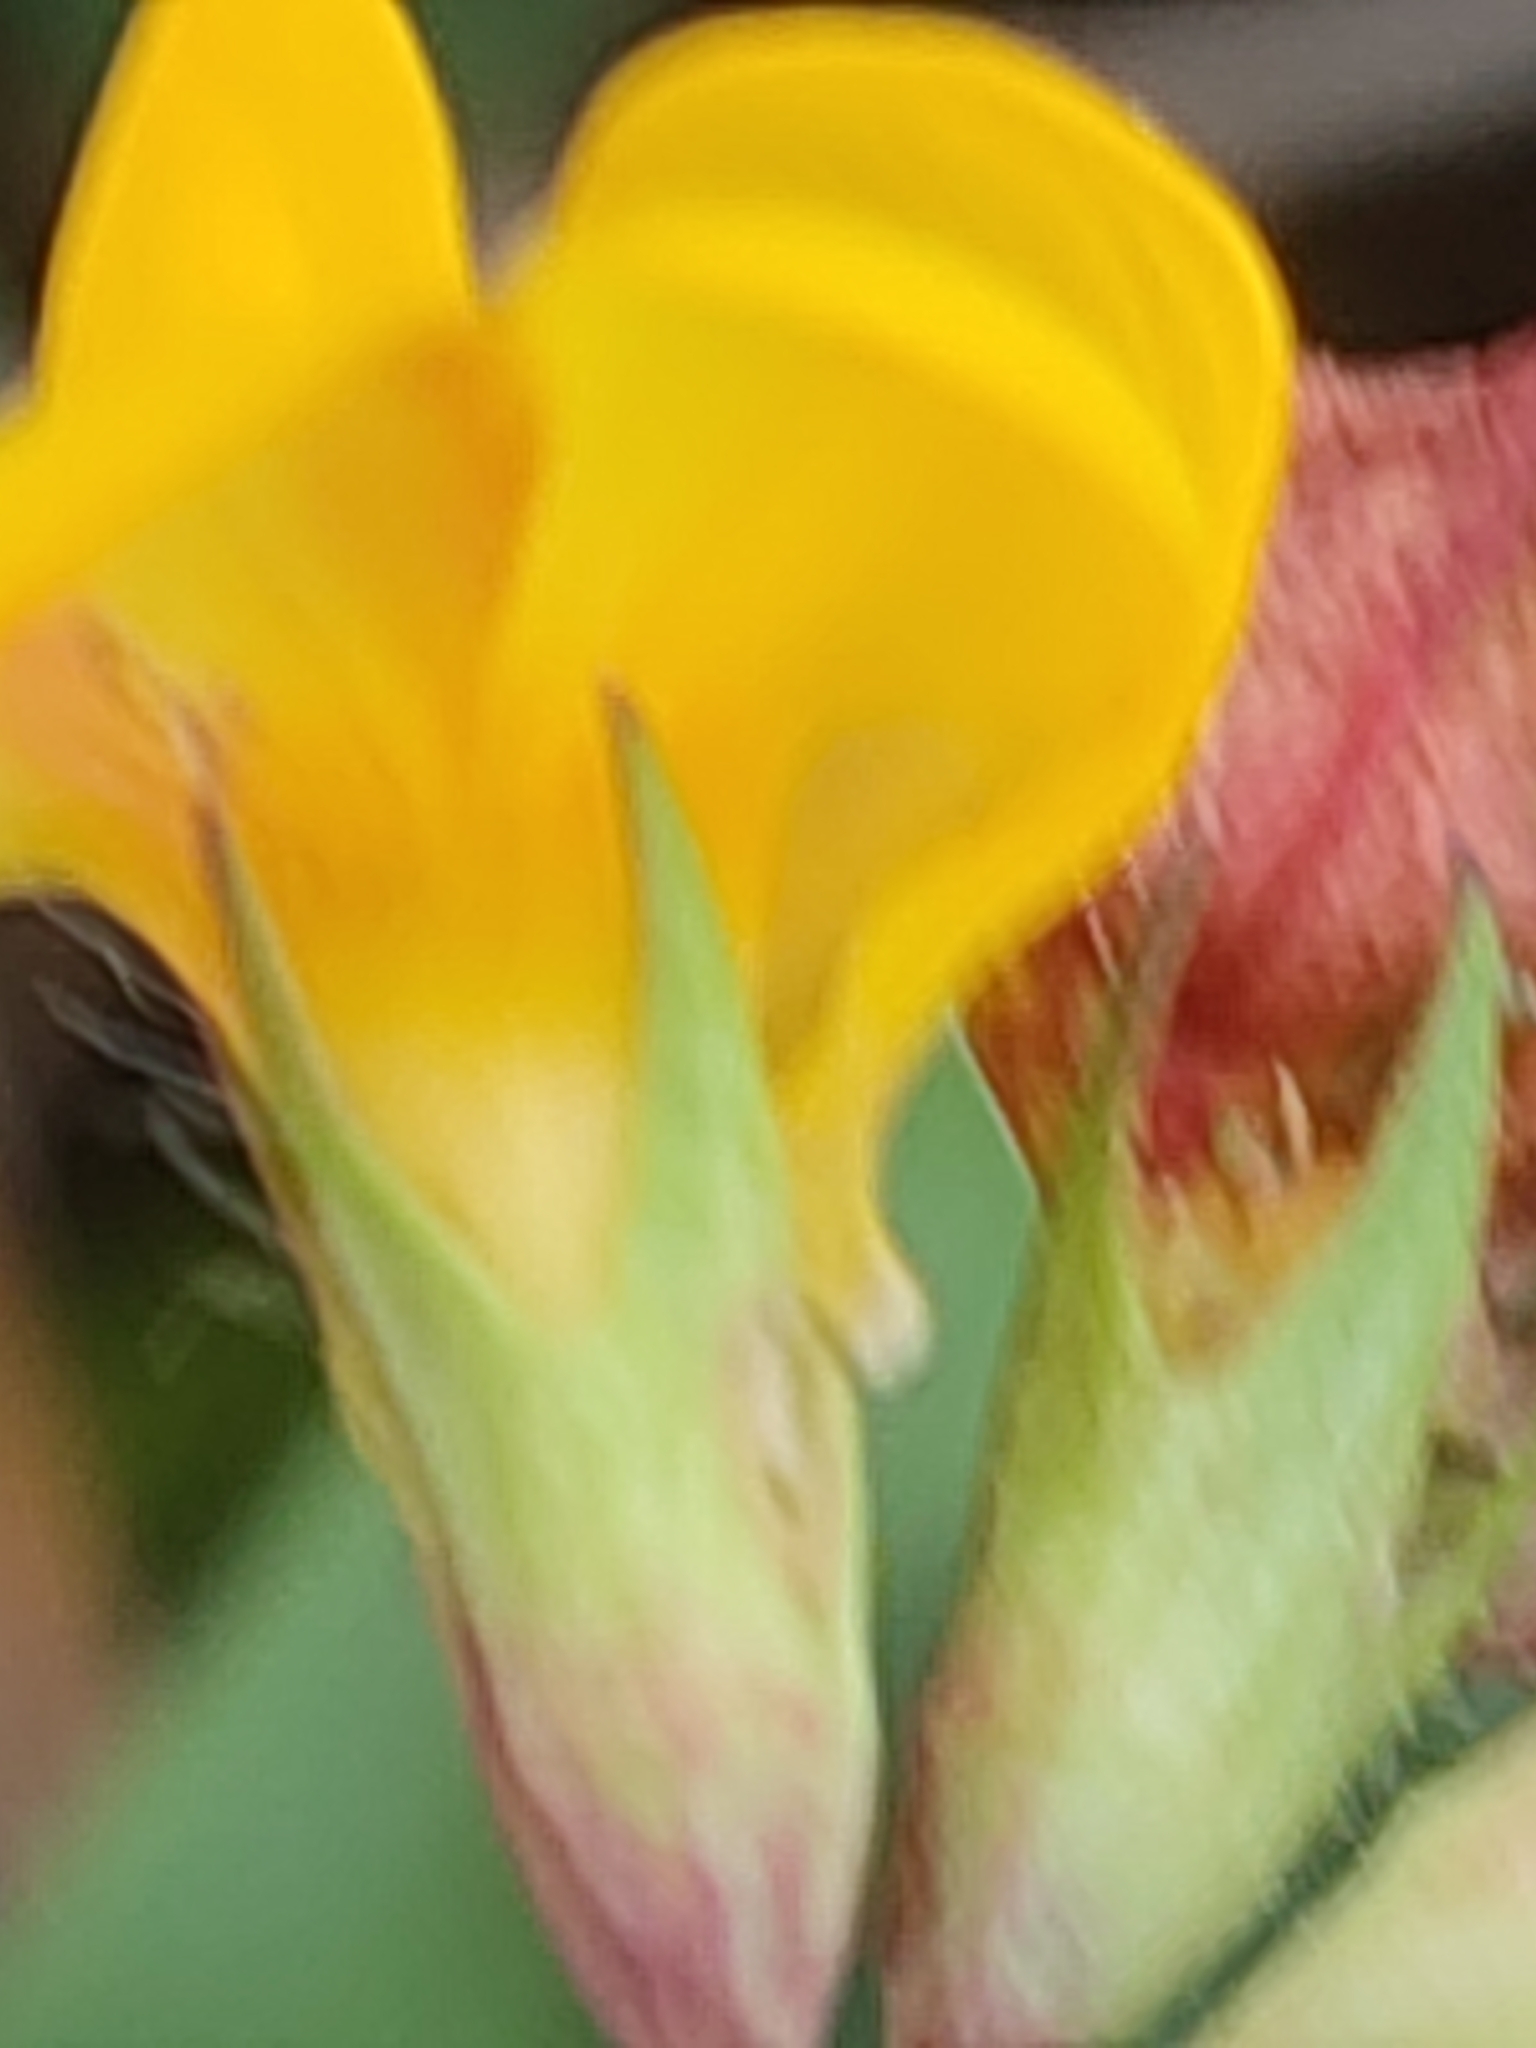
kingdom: Plantae
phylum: Tracheophyta
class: Magnoliopsida
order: Fabales
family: Fabaceae
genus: Lotus
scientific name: Lotus corniculatus
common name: Common bird's-foot-trefoil
